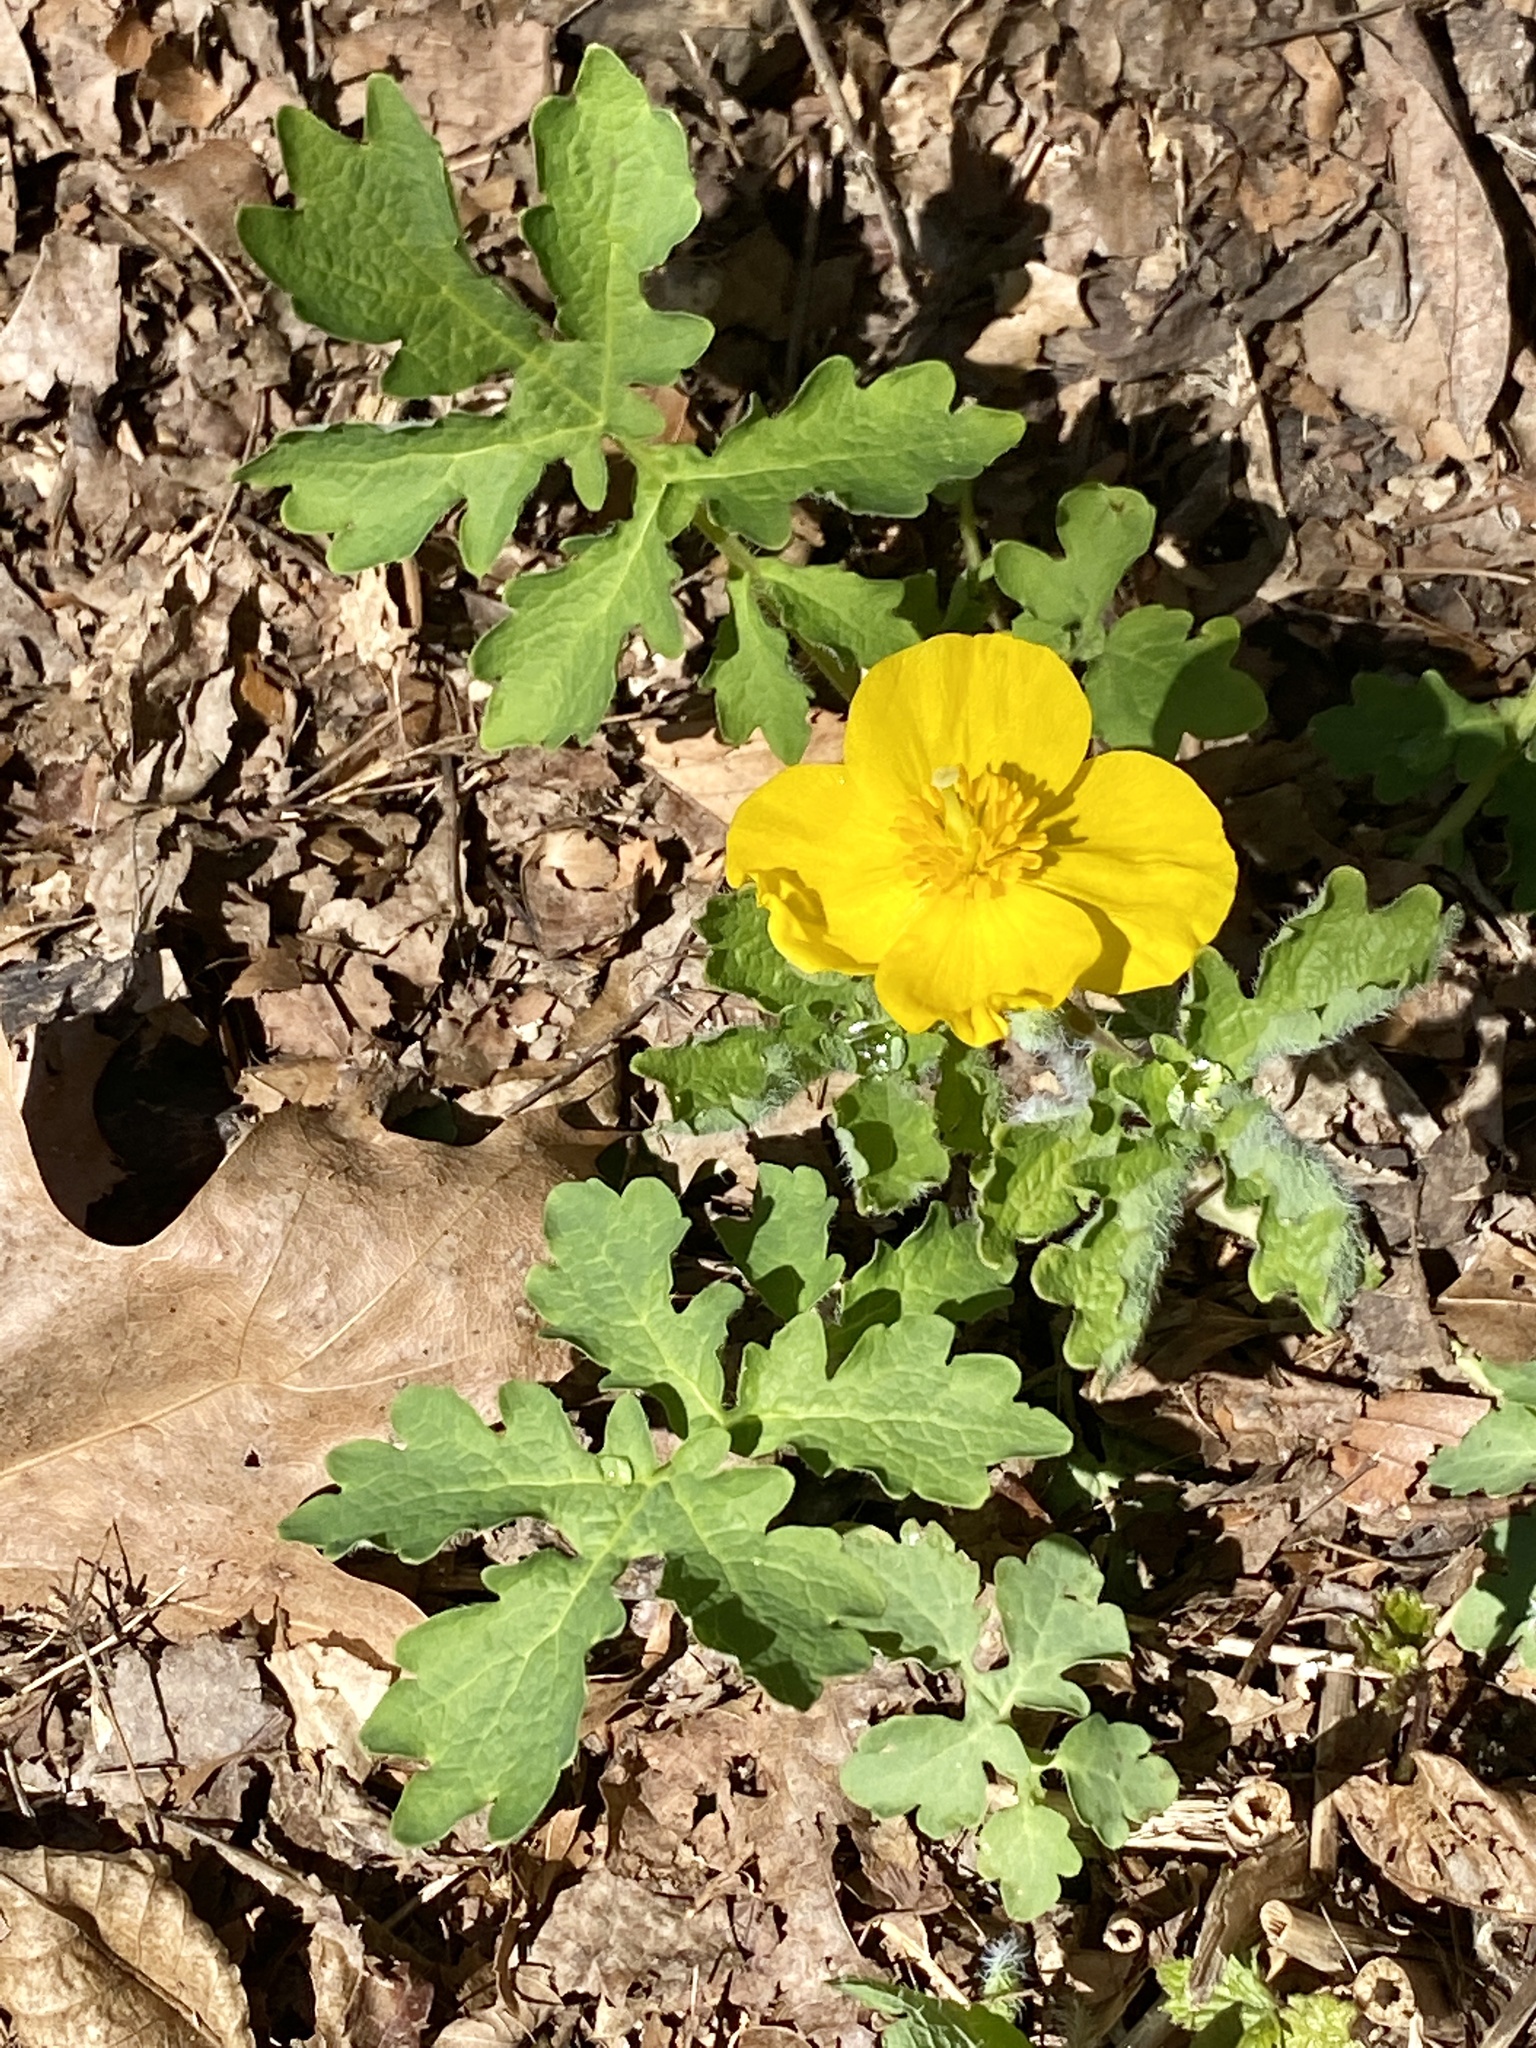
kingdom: Plantae
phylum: Tracheophyta
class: Magnoliopsida
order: Ranunculales
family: Papaveraceae
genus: Stylophorum
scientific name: Stylophorum diphyllum
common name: Celandine poppy
